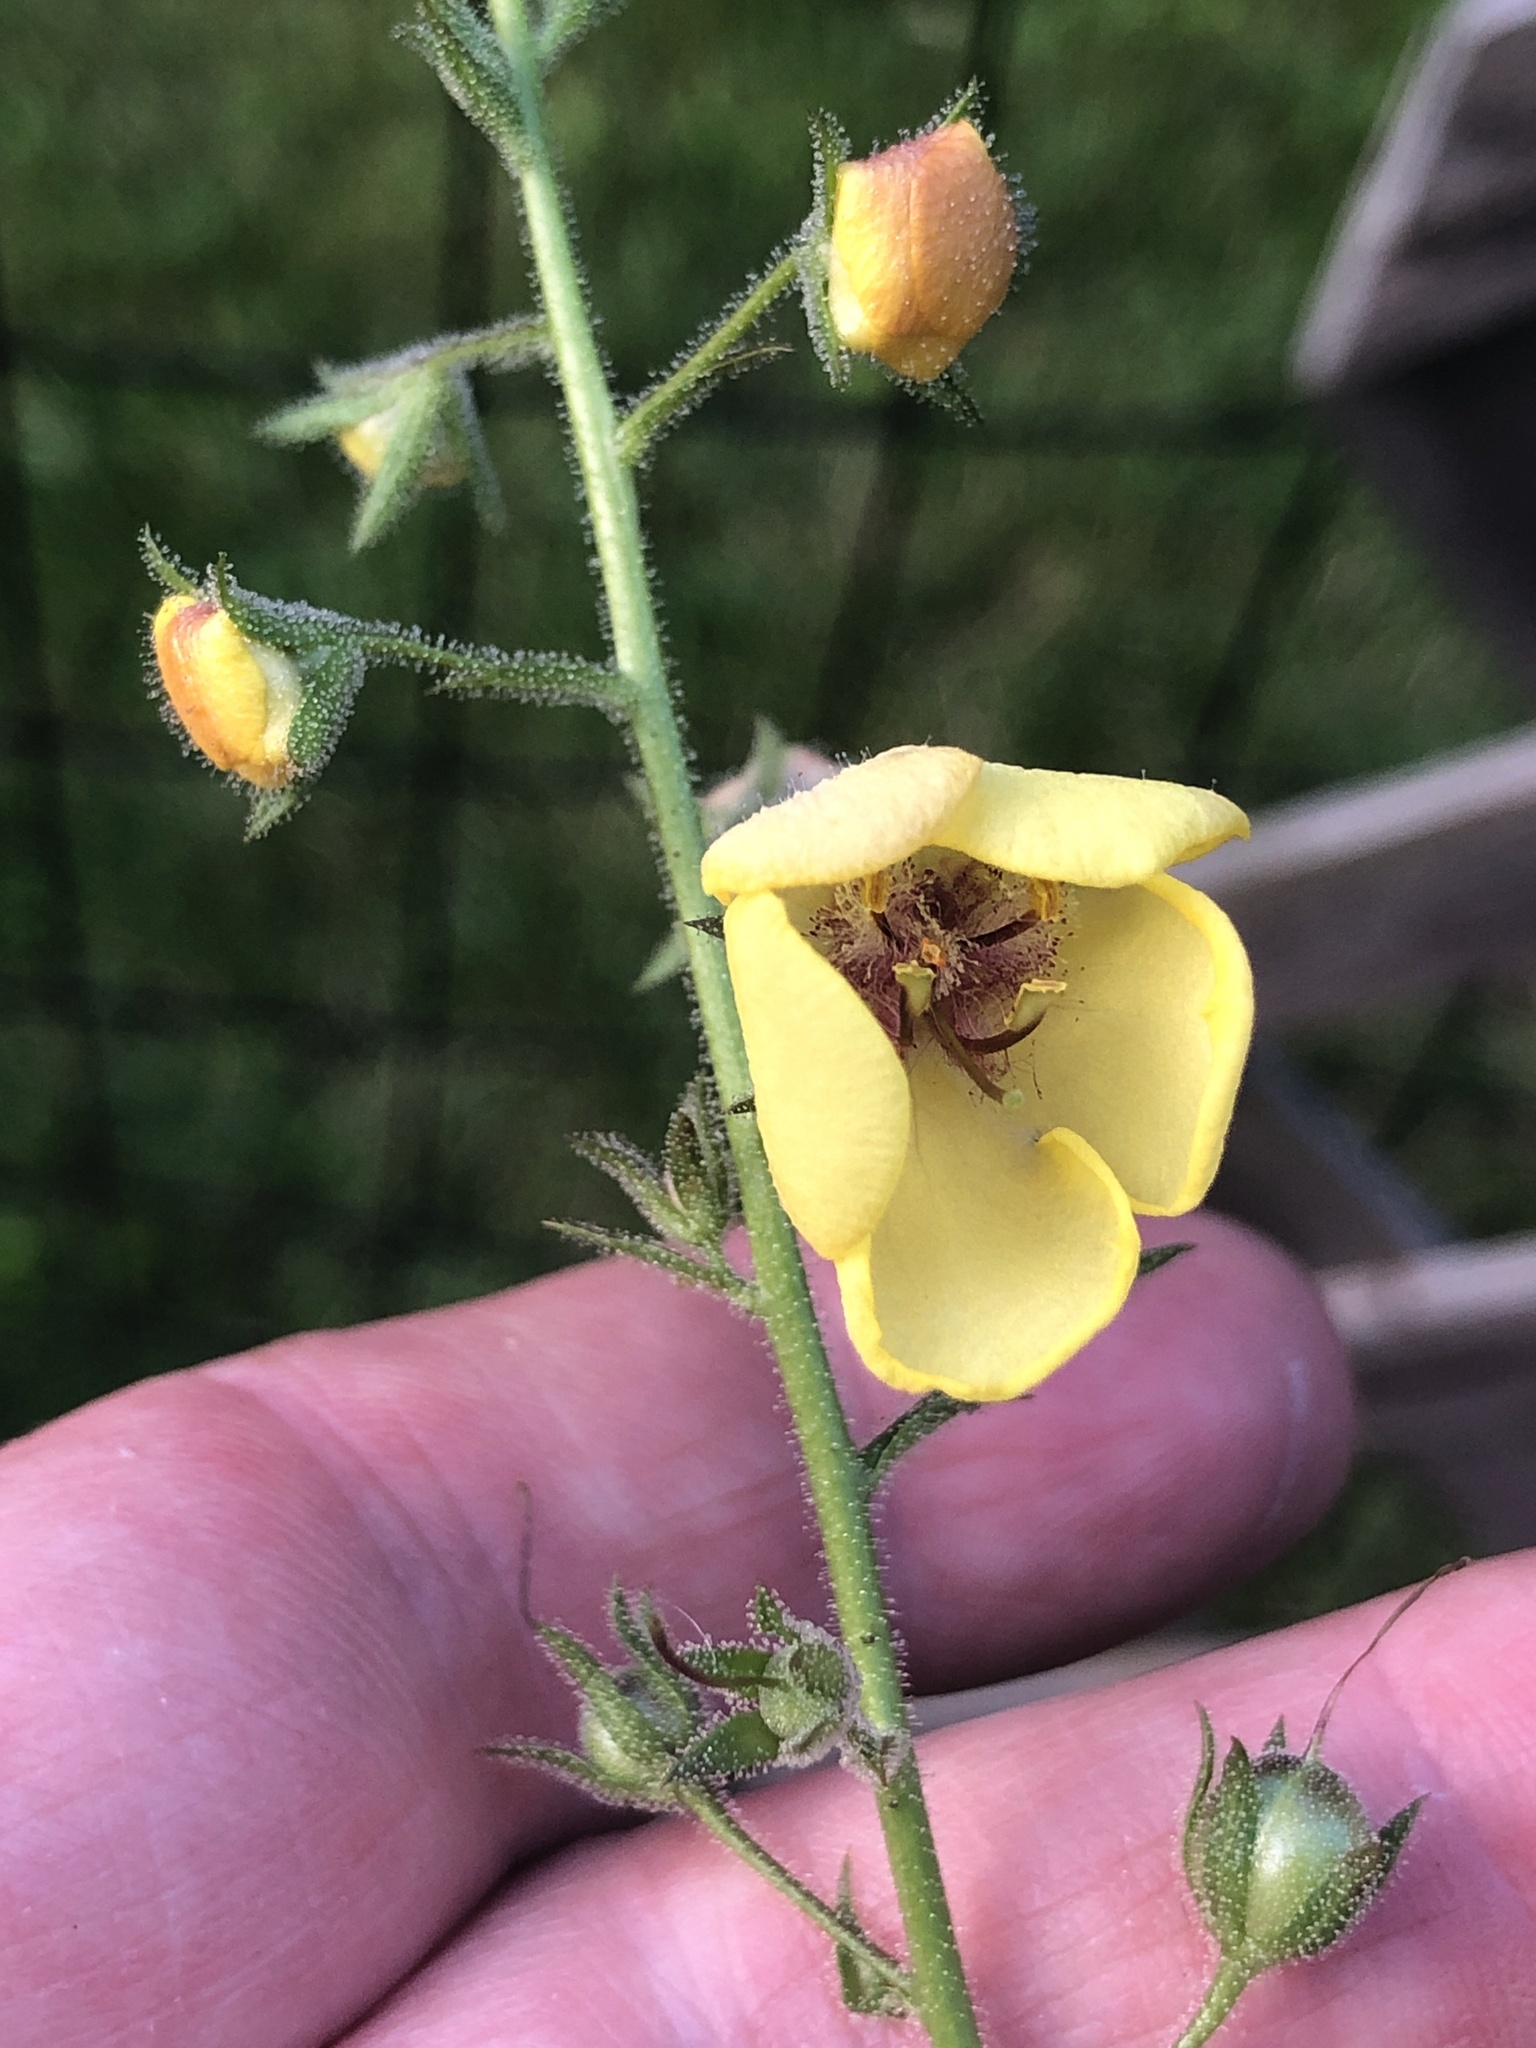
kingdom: Plantae
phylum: Tracheophyta
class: Magnoliopsida
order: Lamiales
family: Scrophulariaceae
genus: Verbascum
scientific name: Verbascum blattaria
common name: Moth mullein
